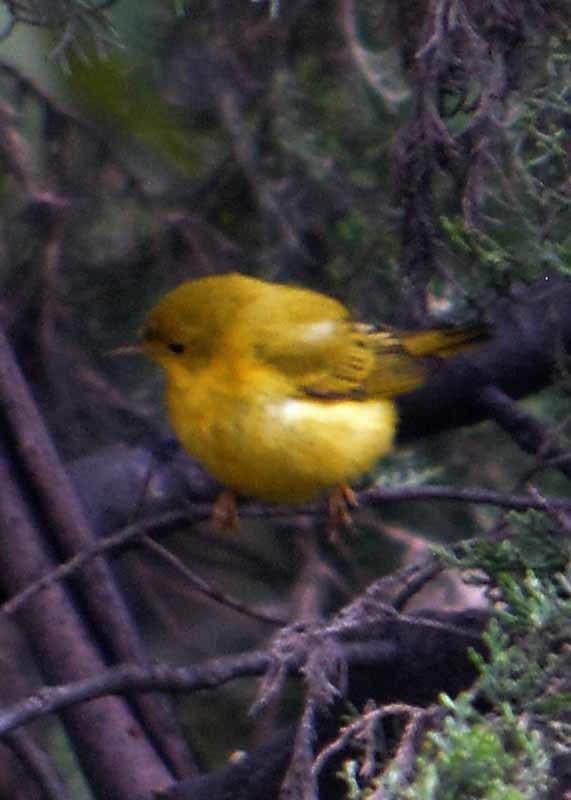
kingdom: Animalia
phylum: Chordata
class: Aves
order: Passeriformes
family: Parulidae
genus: Setophaga
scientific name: Setophaga petechia
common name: Yellow warbler
